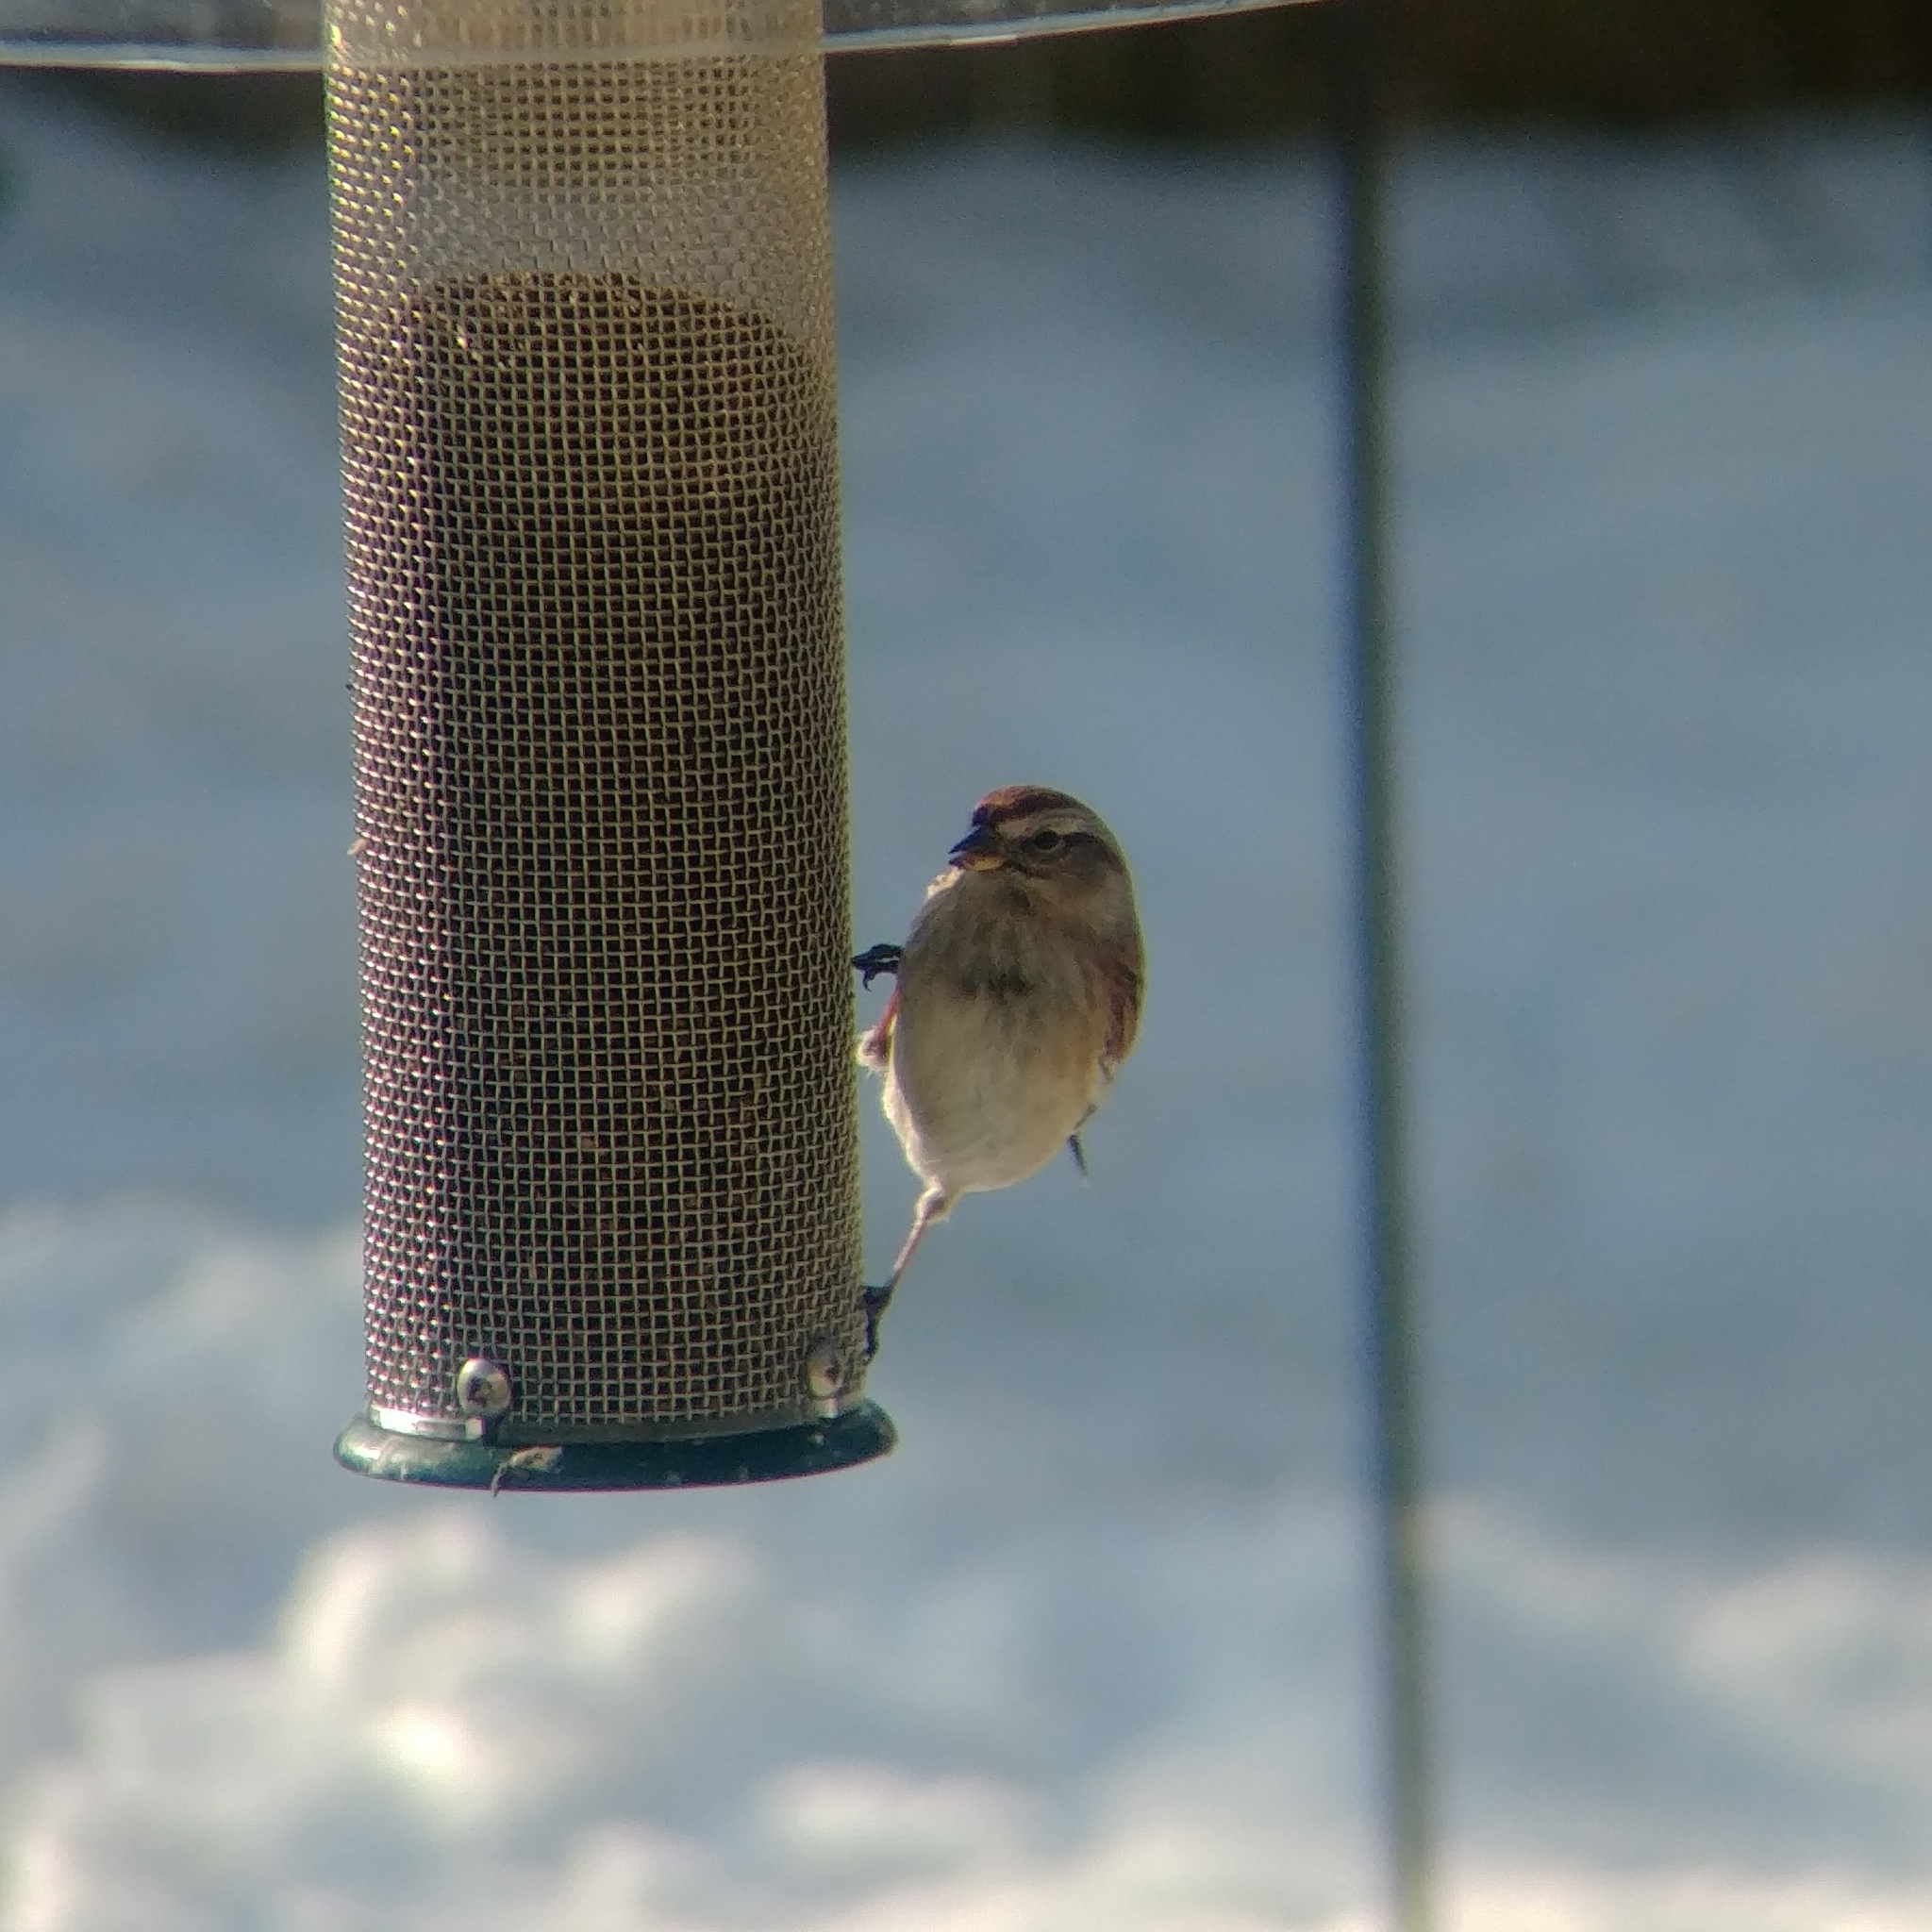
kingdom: Animalia
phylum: Chordata
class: Aves
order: Passeriformes
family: Passerellidae
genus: Spizelloides
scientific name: Spizelloides arborea
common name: American tree sparrow
